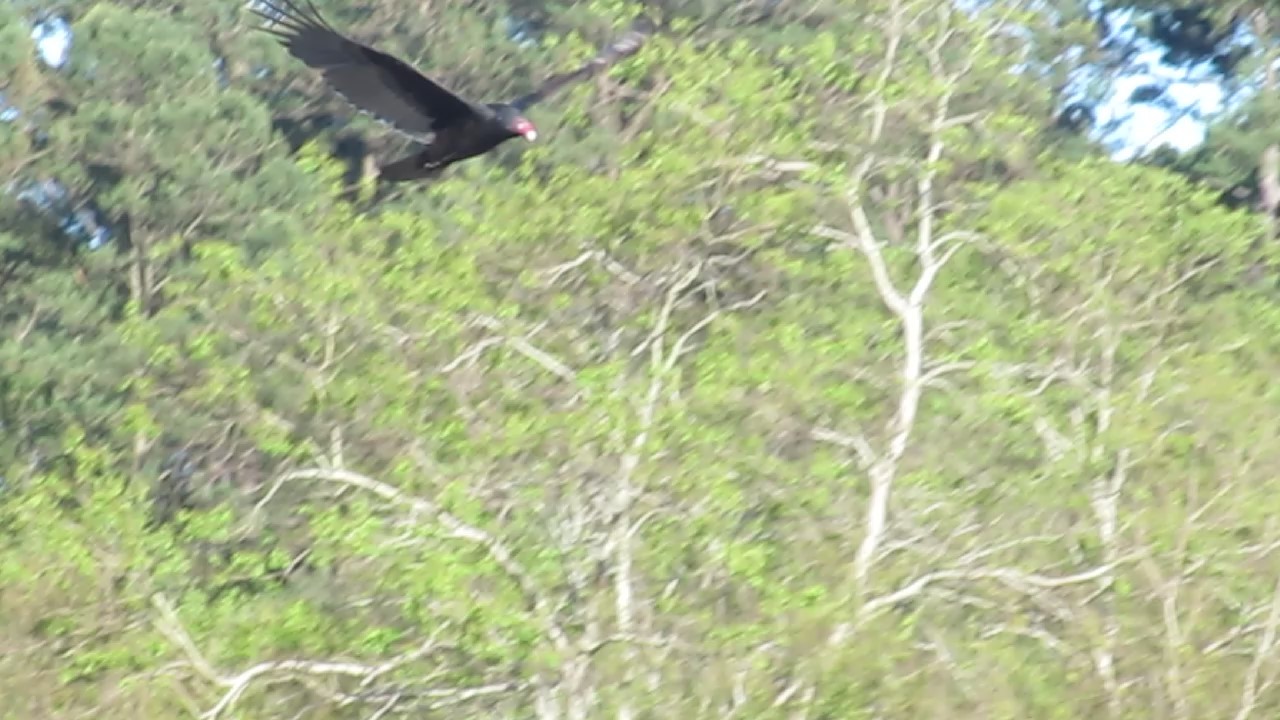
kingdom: Animalia
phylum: Chordata
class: Aves
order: Accipitriformes
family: Cathartidae
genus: Cathartes
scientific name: Cathartes aura
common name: Turkey vulture
